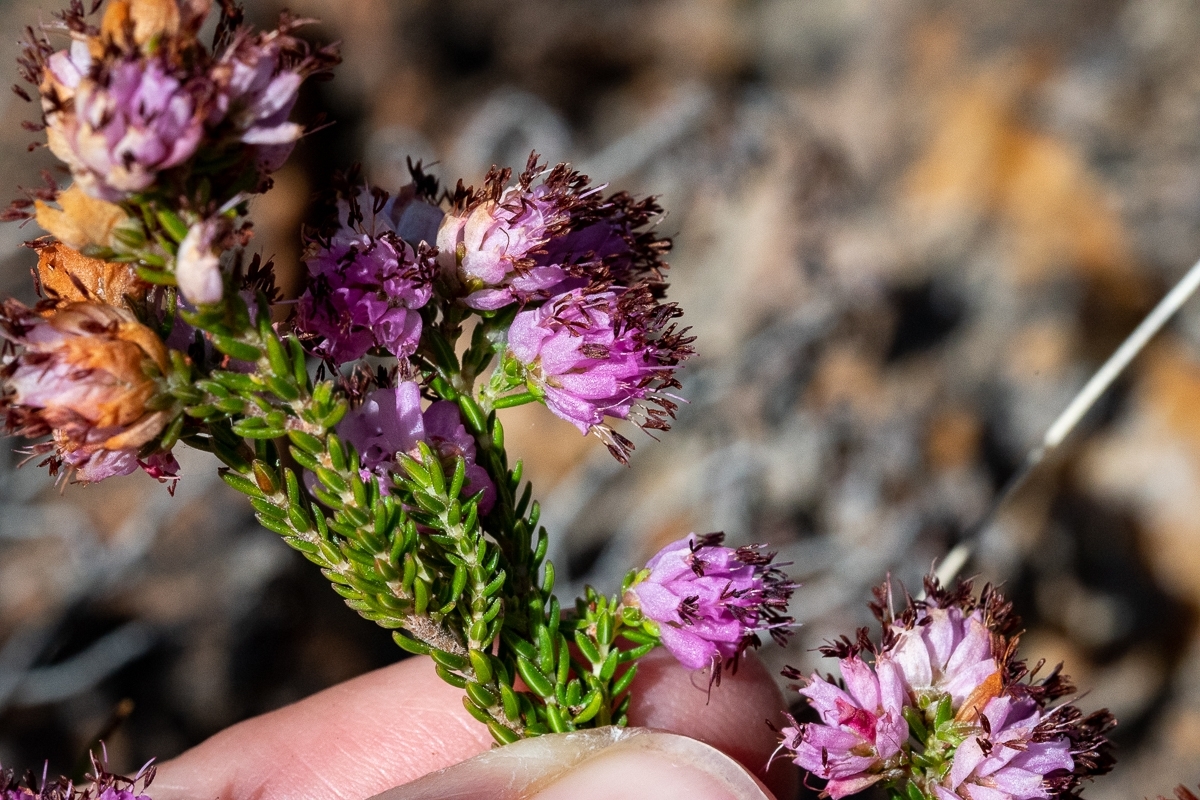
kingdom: Plantae
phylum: Tracheophyta
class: Magnoliopsida
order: Ericales
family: Ericaceae
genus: Erica
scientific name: Erica labialis
